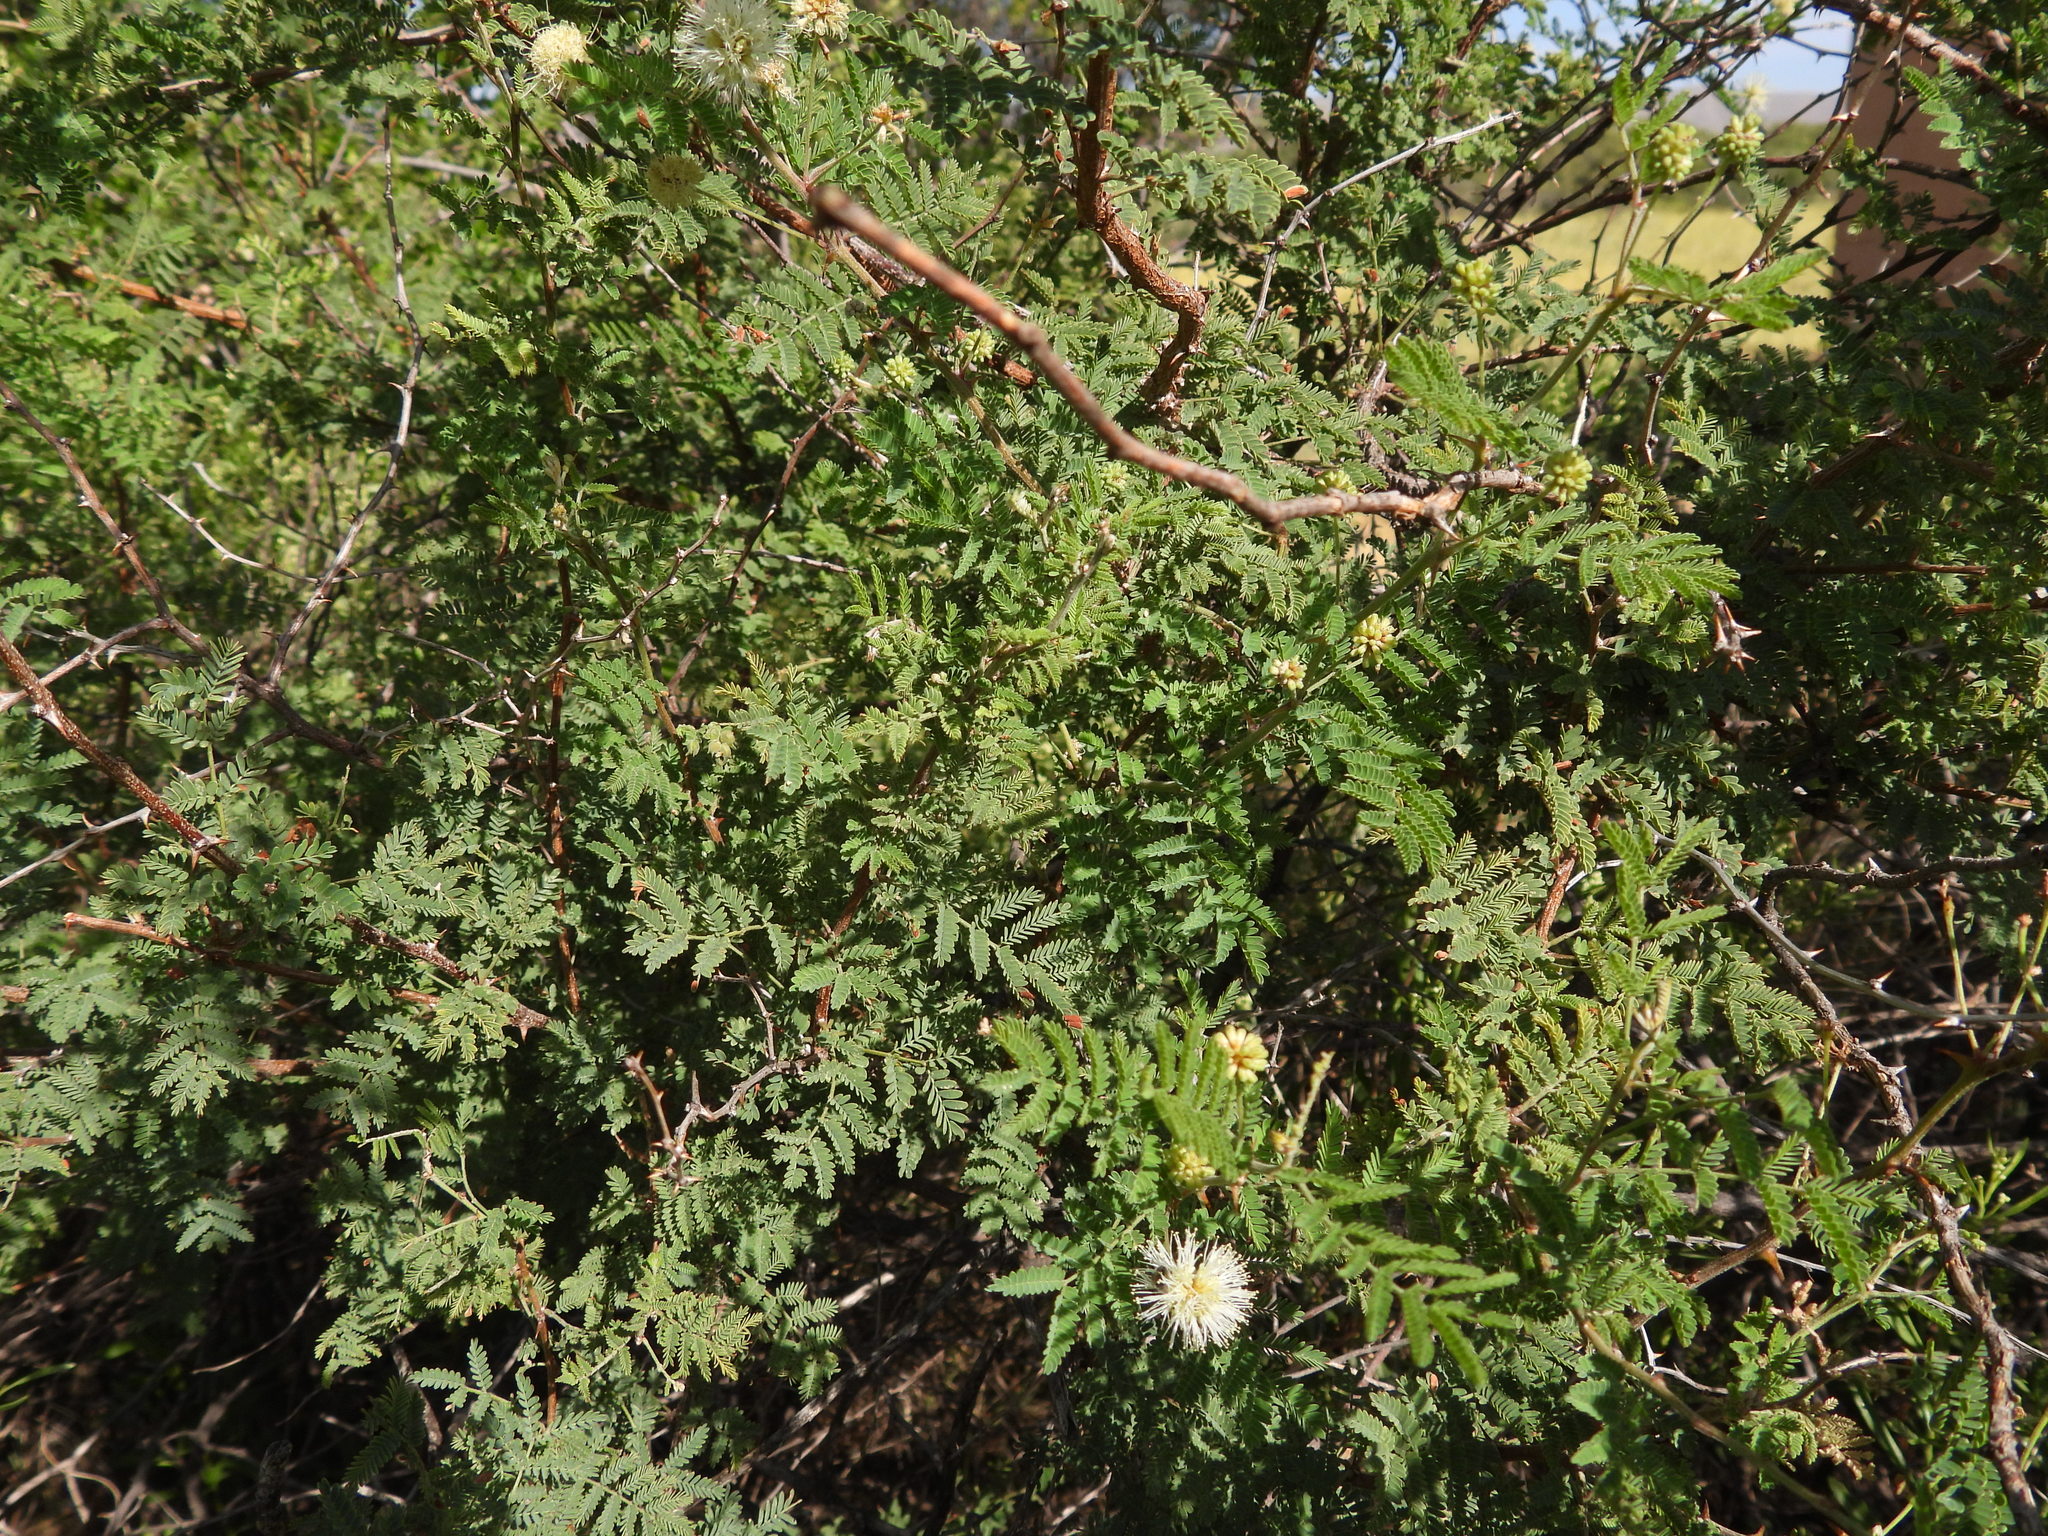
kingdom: Plantae
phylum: Tracheophyta
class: Magnoliopsida
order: Fabales
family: Fabaceae
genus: Mimosa
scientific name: Mimosa aculeaticarpa
